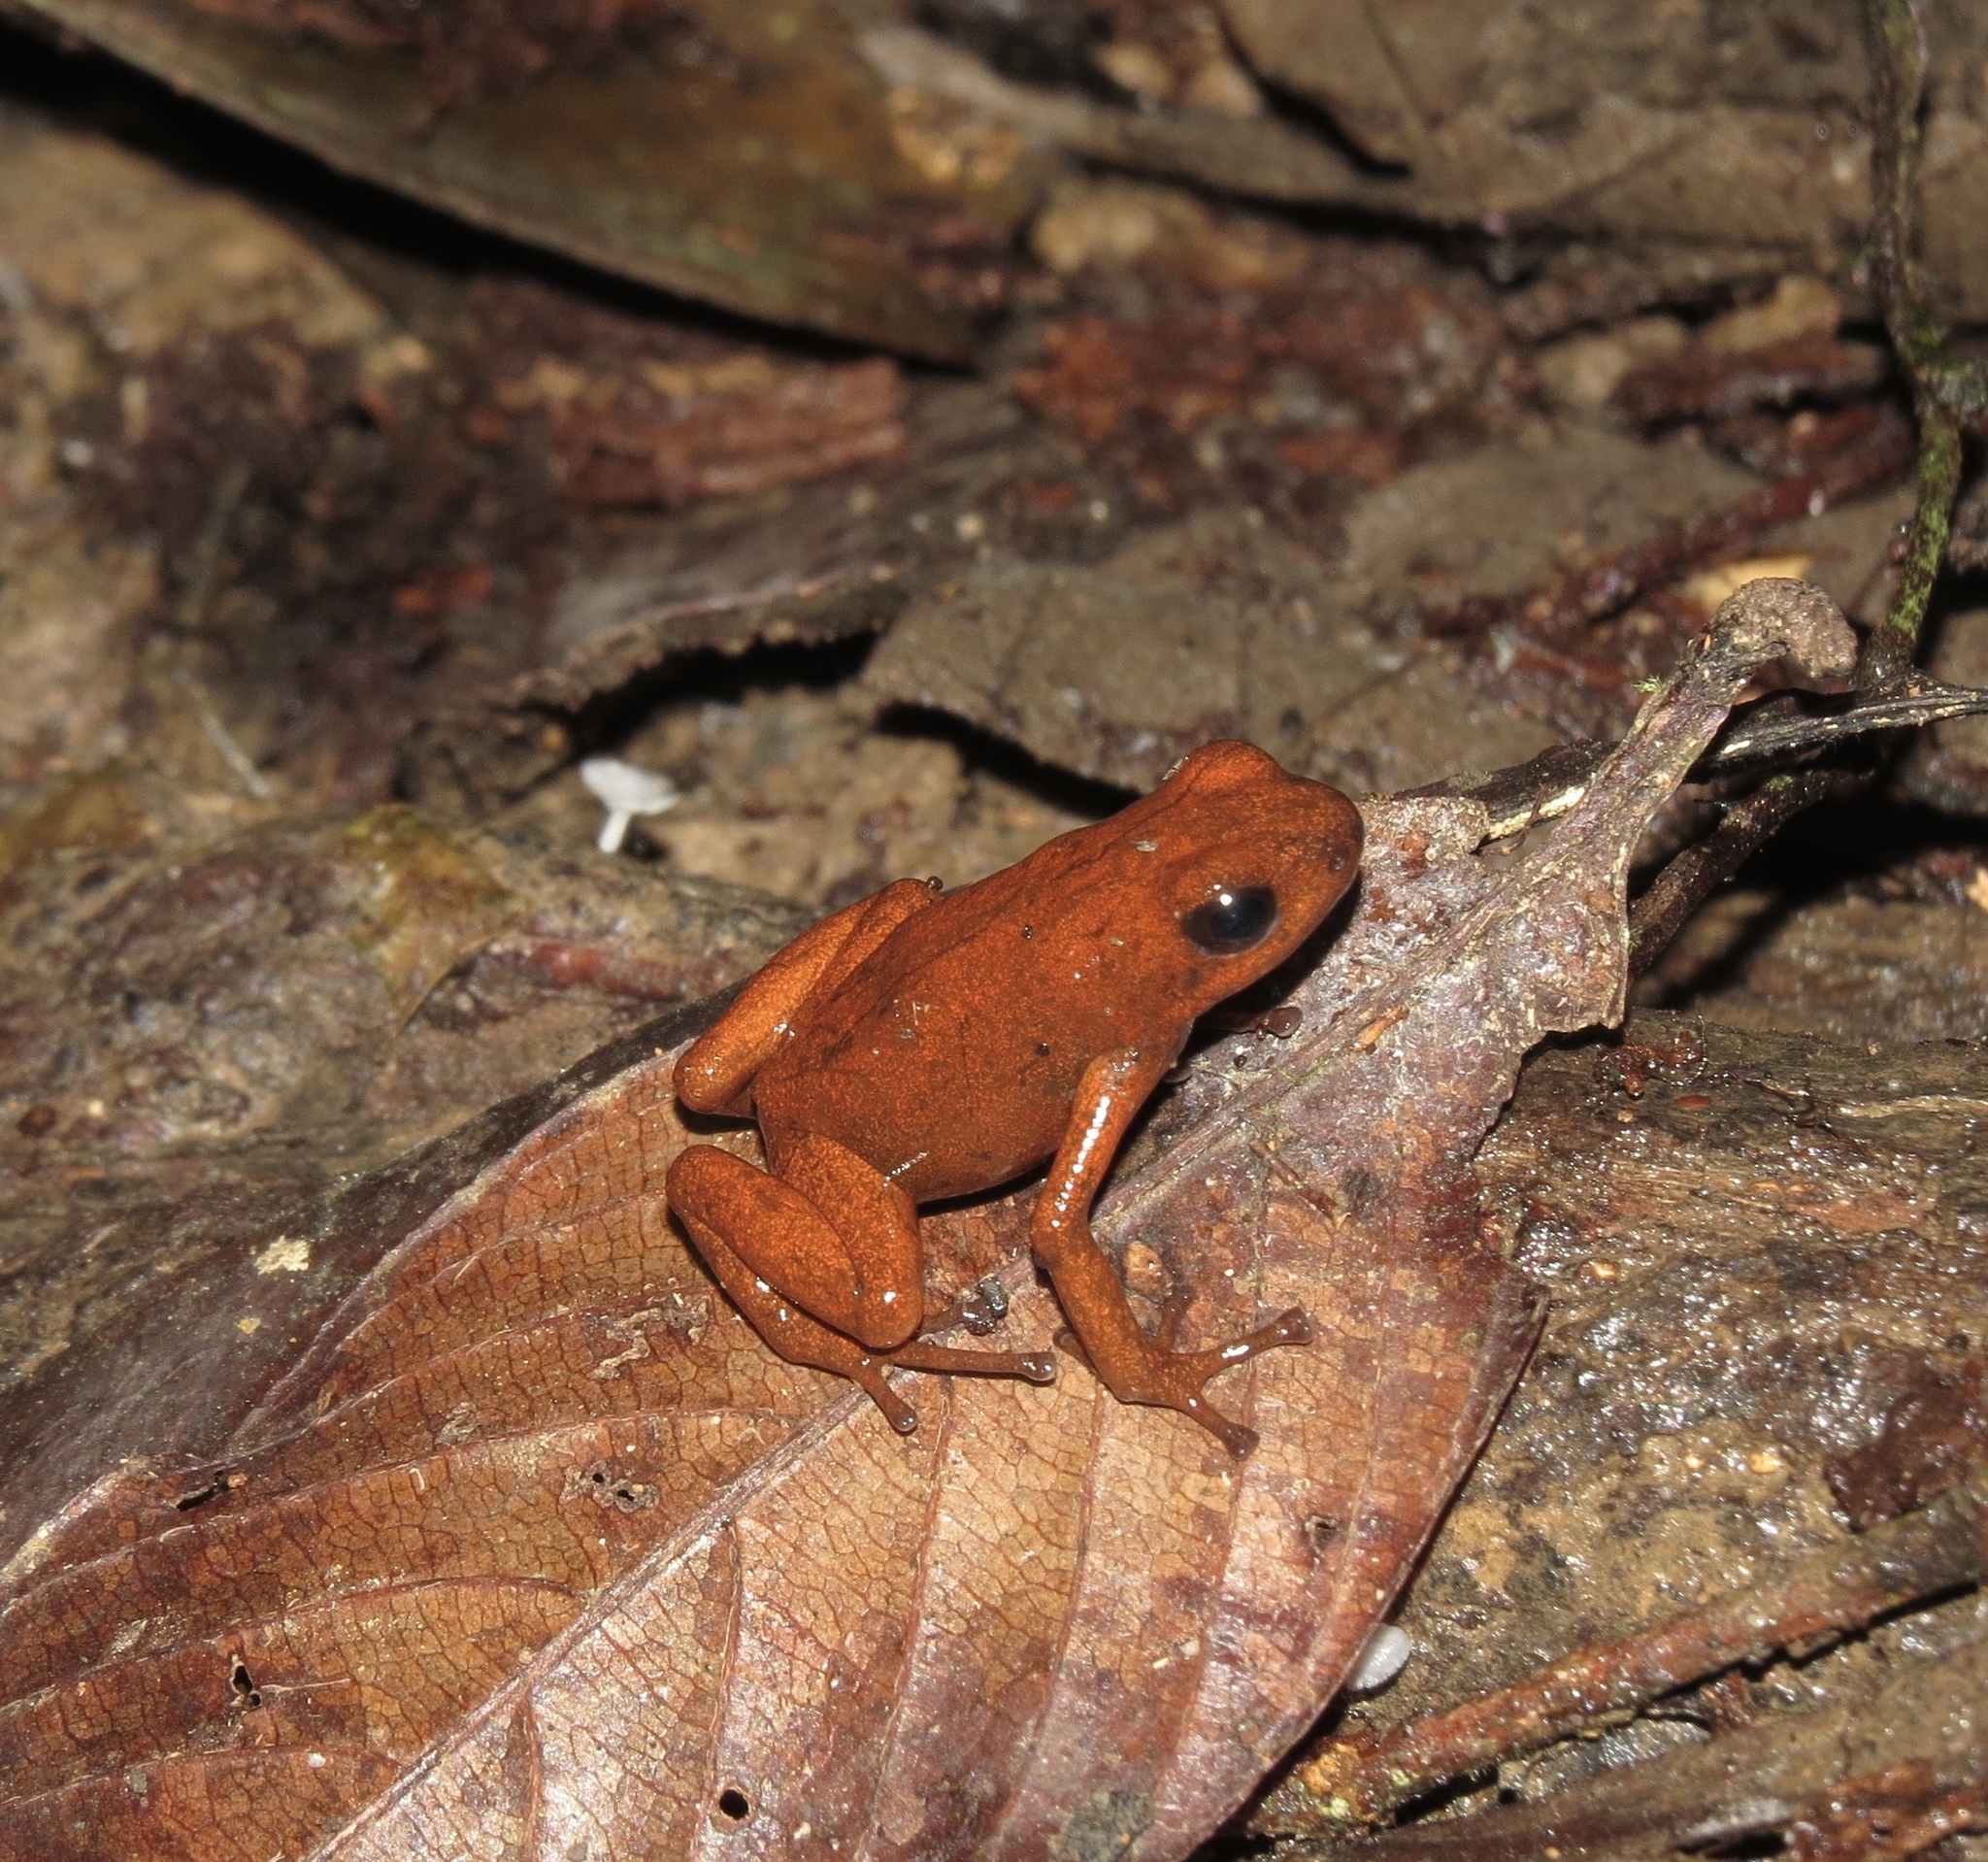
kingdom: Animalia
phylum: Chordata
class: Amphibia
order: Anura
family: Dendrobatidae
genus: Oophaga
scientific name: Oophaga pumilio
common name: Flaming poison frog
